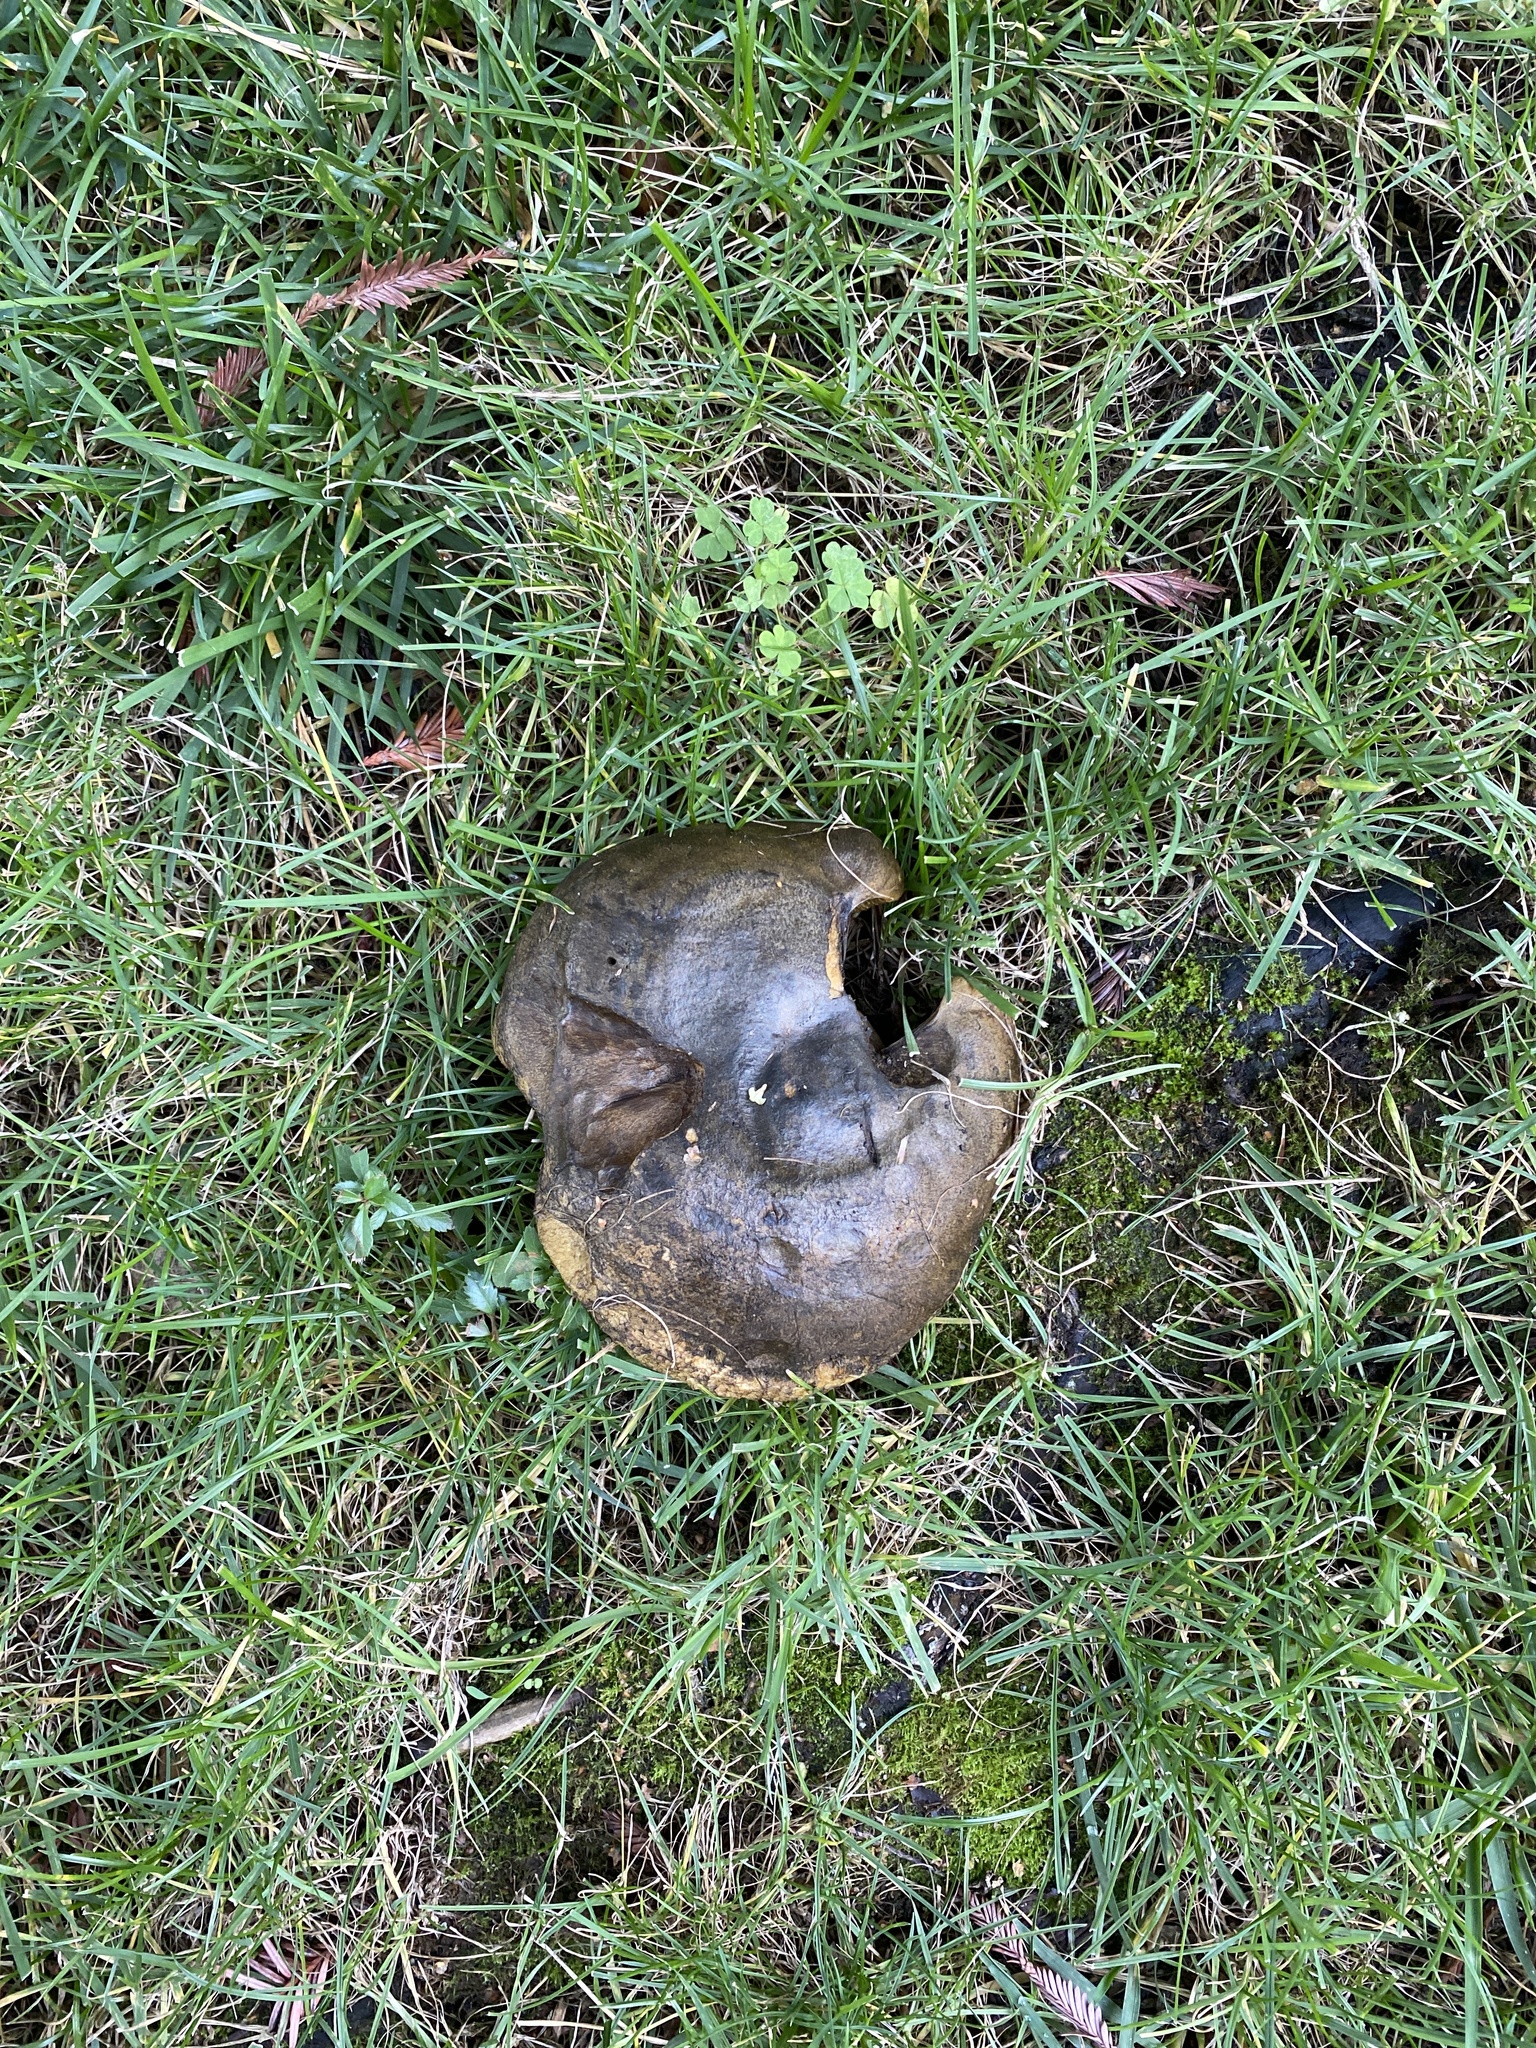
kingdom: Fungi
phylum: Basidiomycota
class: Agaricomycetes
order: Russulales
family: Russulaceae
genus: Lactarius
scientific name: Lactarius turpis
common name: Ugly milk-cap
